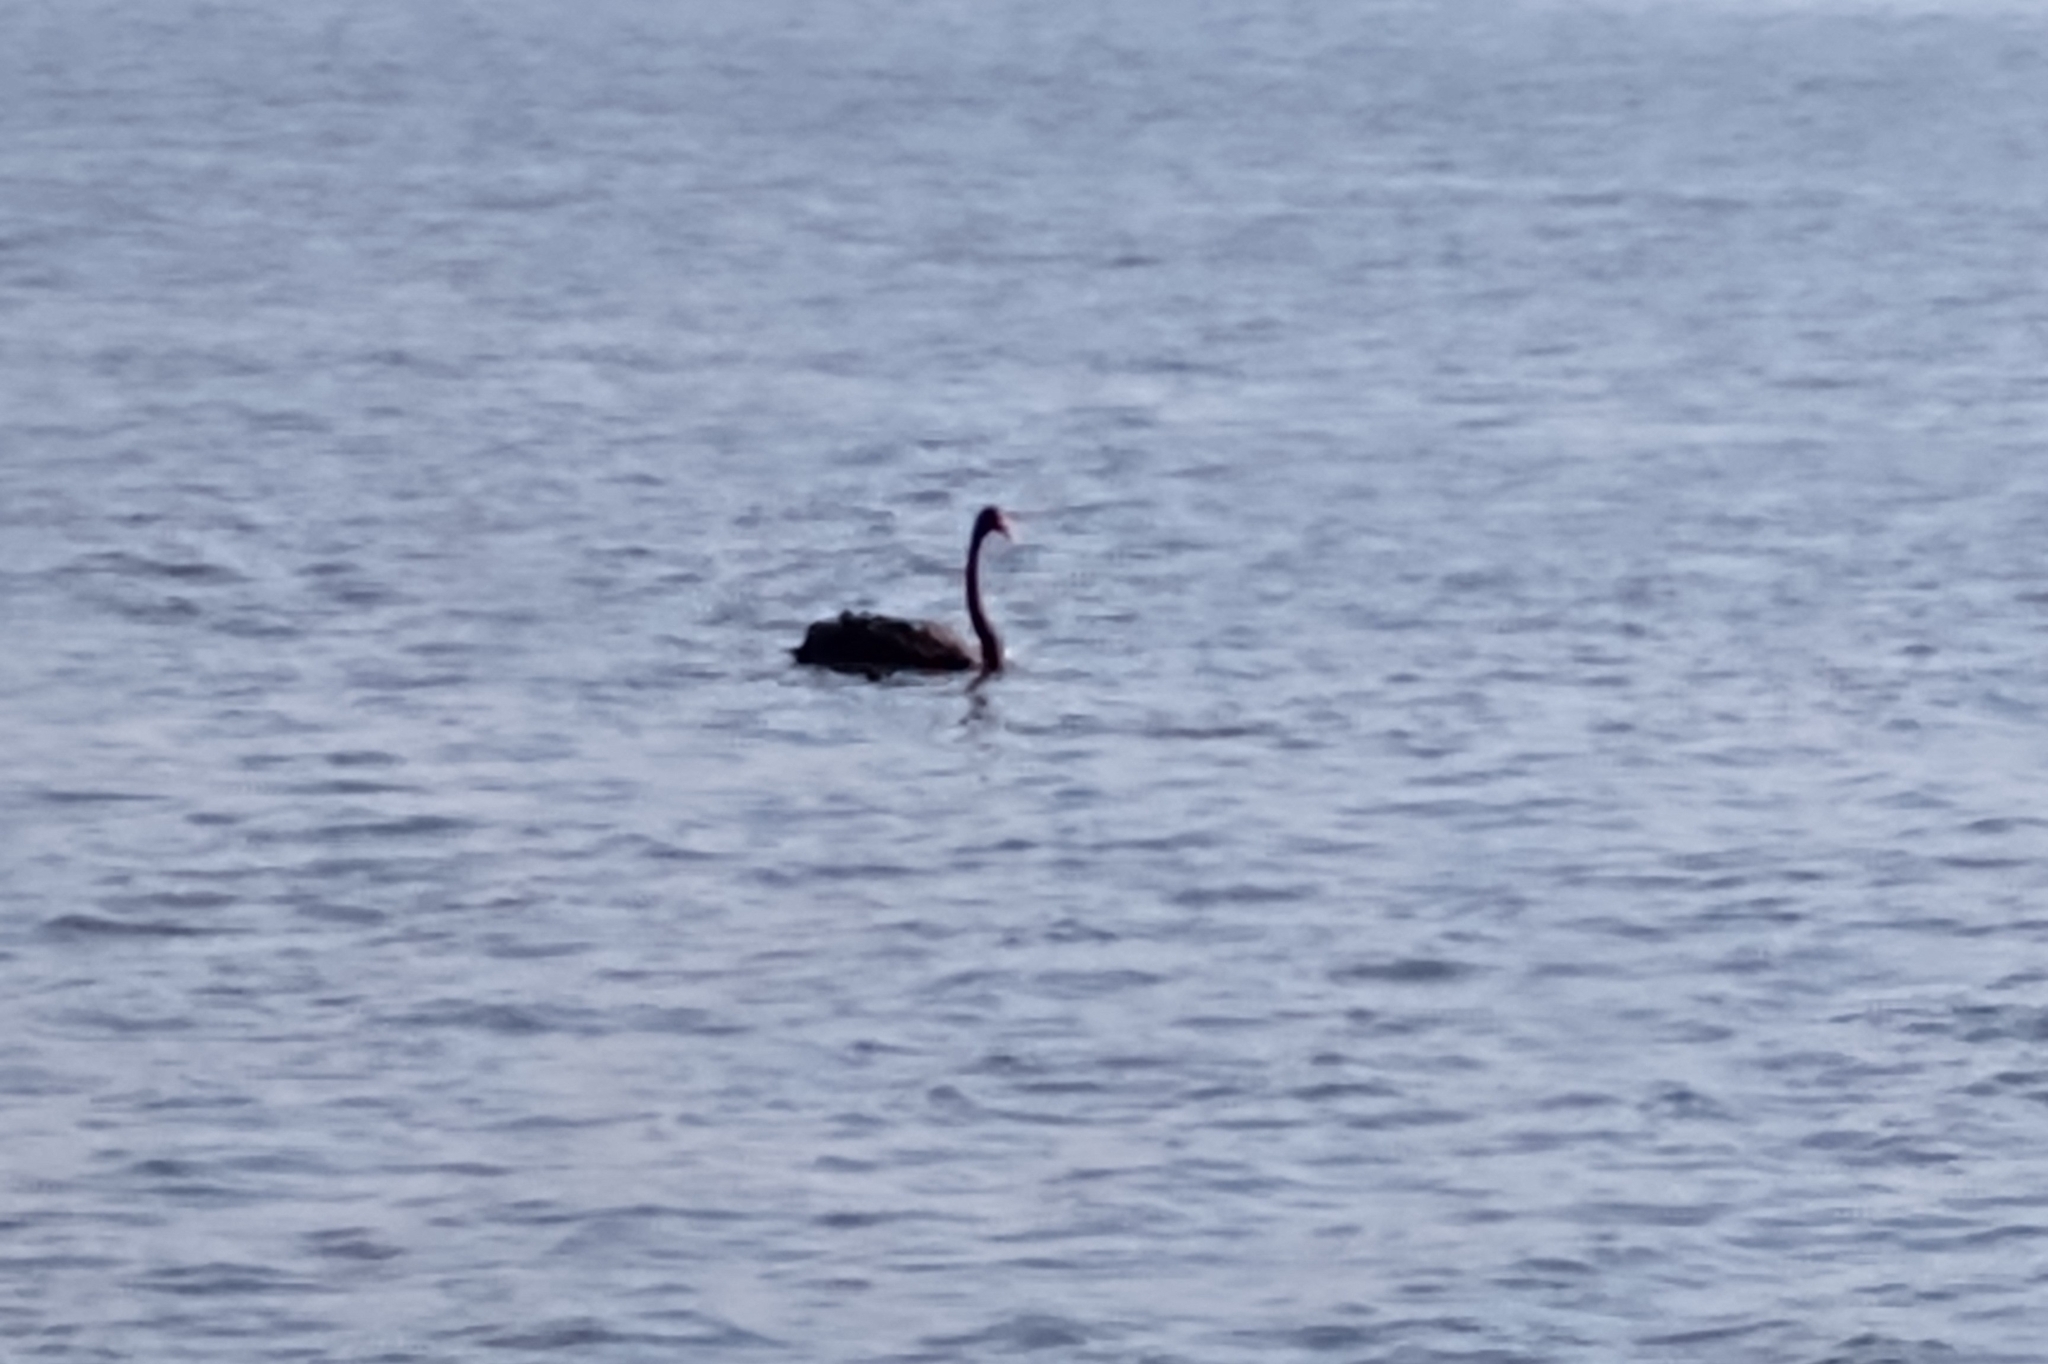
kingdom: Animalia
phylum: Chordata
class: Aves
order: Anseriformes
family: Anatidae
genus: Cygnus
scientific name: Cygnus atratus
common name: Black swan
